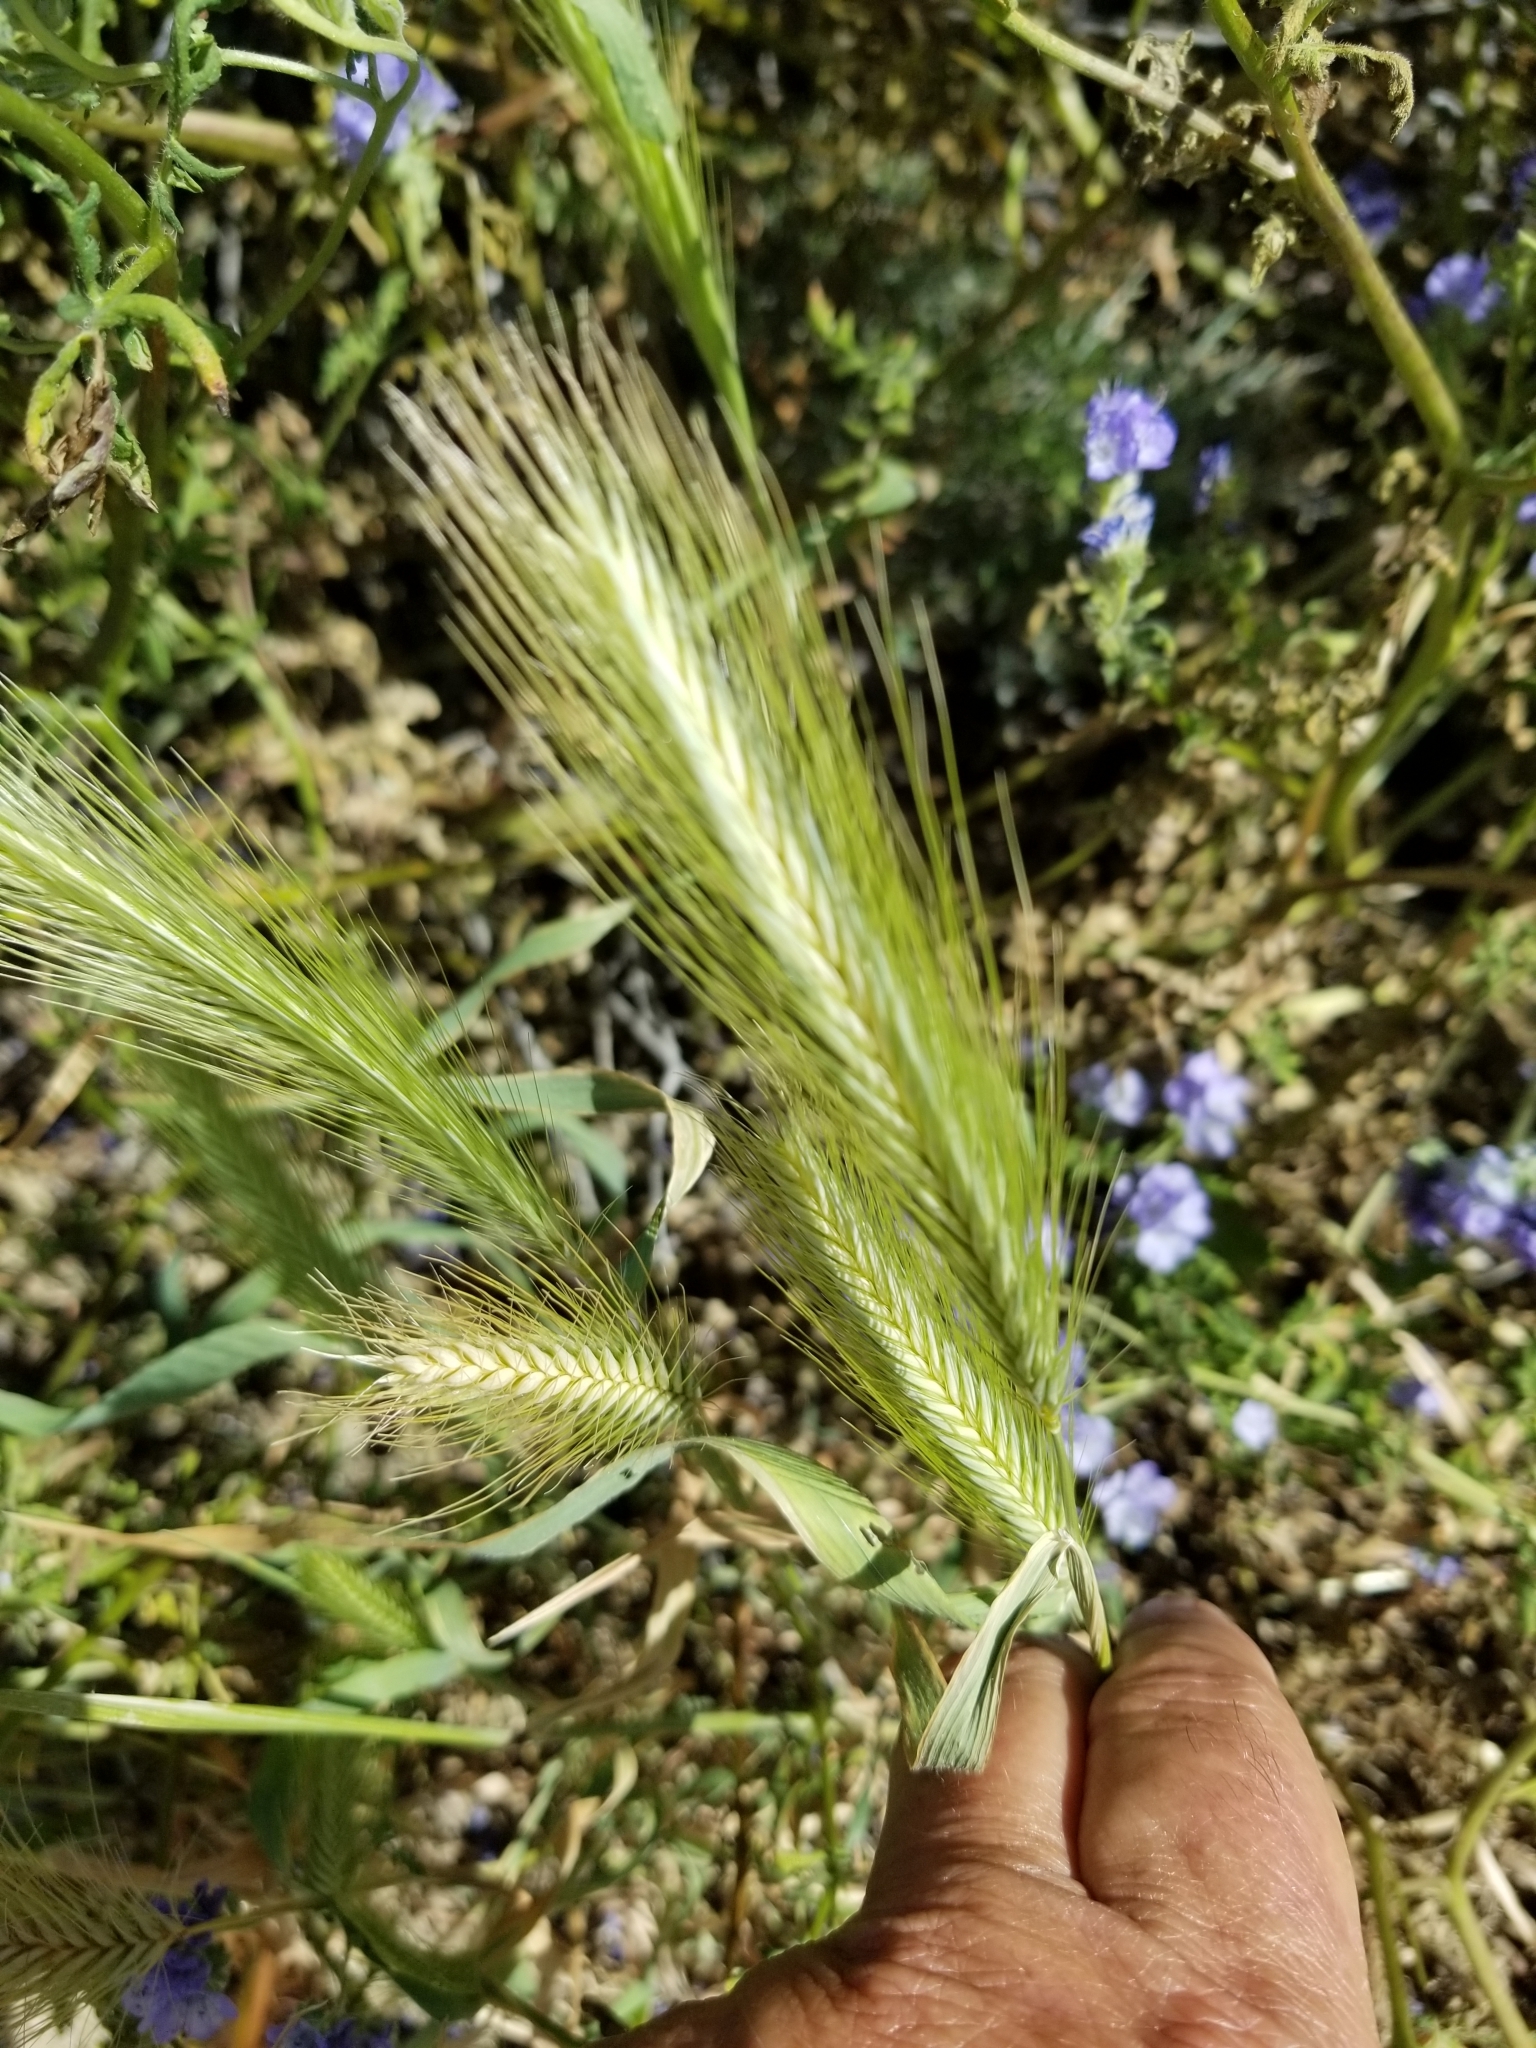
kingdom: Plantae
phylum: Tracheophyta
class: Liliopsida
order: Poales
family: Poaceae
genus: Hordeum
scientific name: Hordeum murinum
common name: Wall barley
